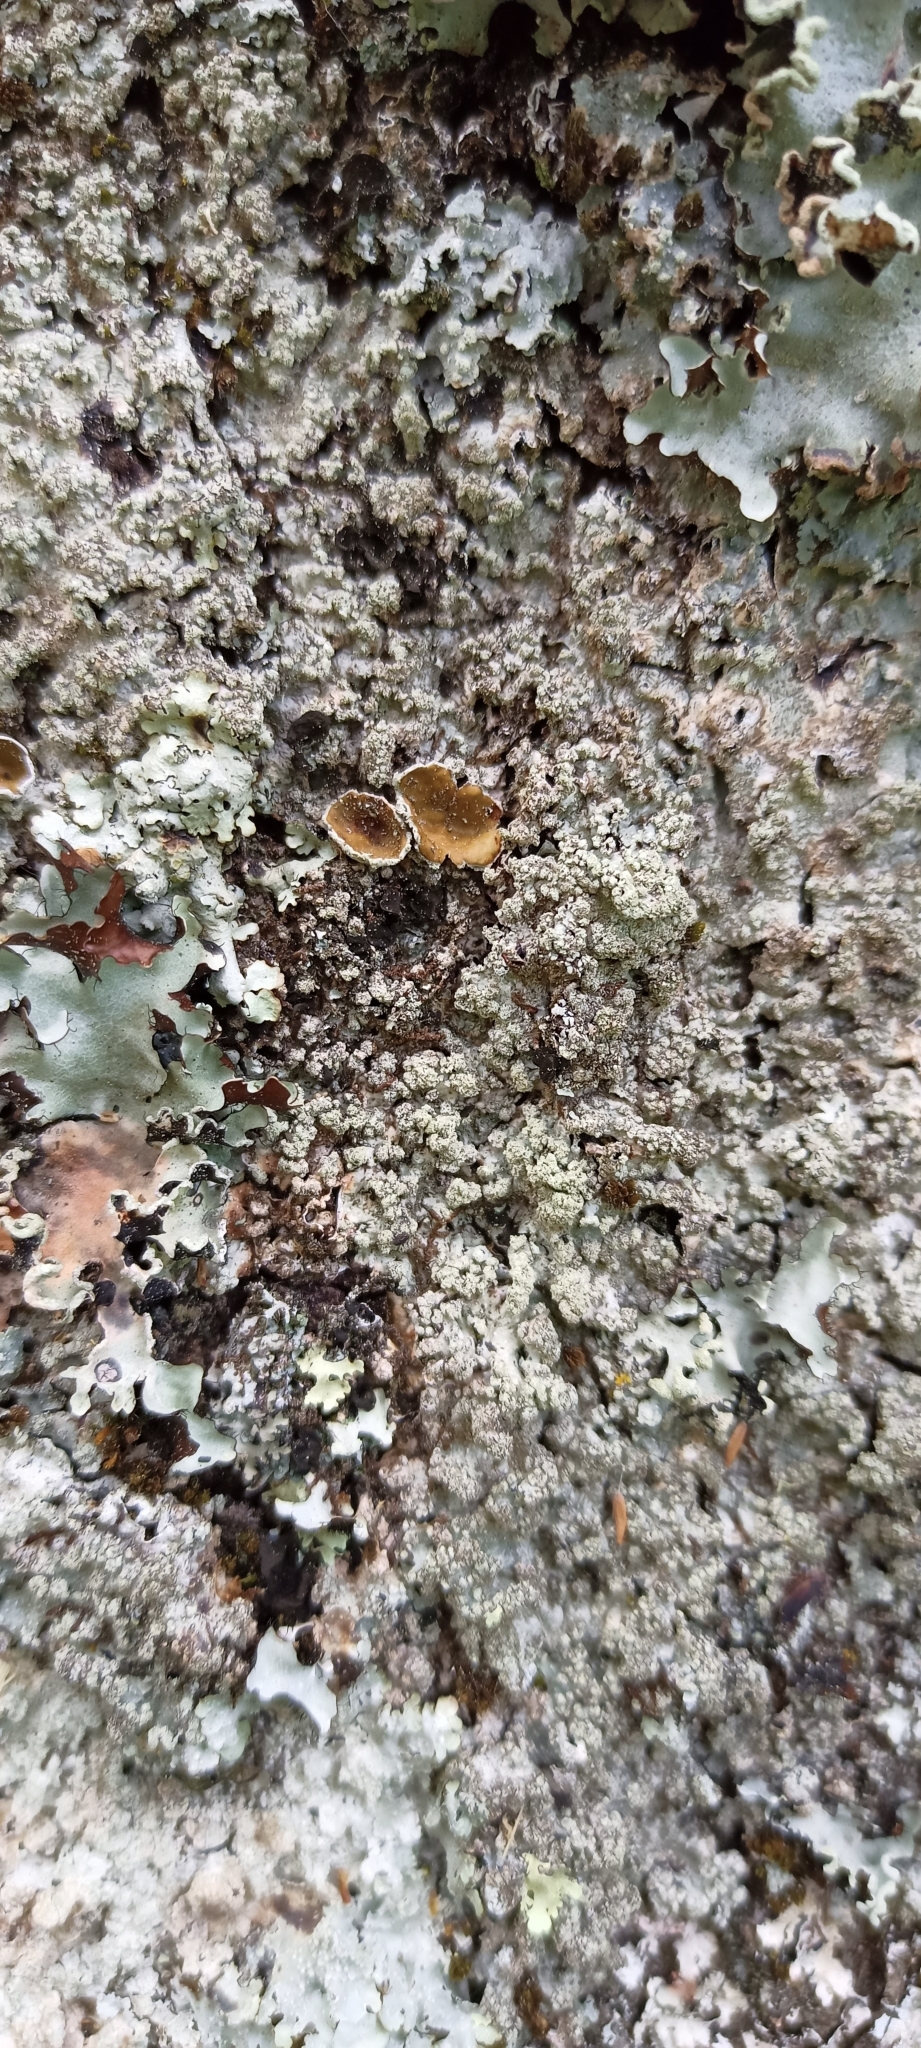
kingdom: Fungi
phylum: Ascomycota
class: Lecanoromycetes
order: Lecanorales
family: Parmeliaceae
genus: Punctelia
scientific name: Punctelia borreri
